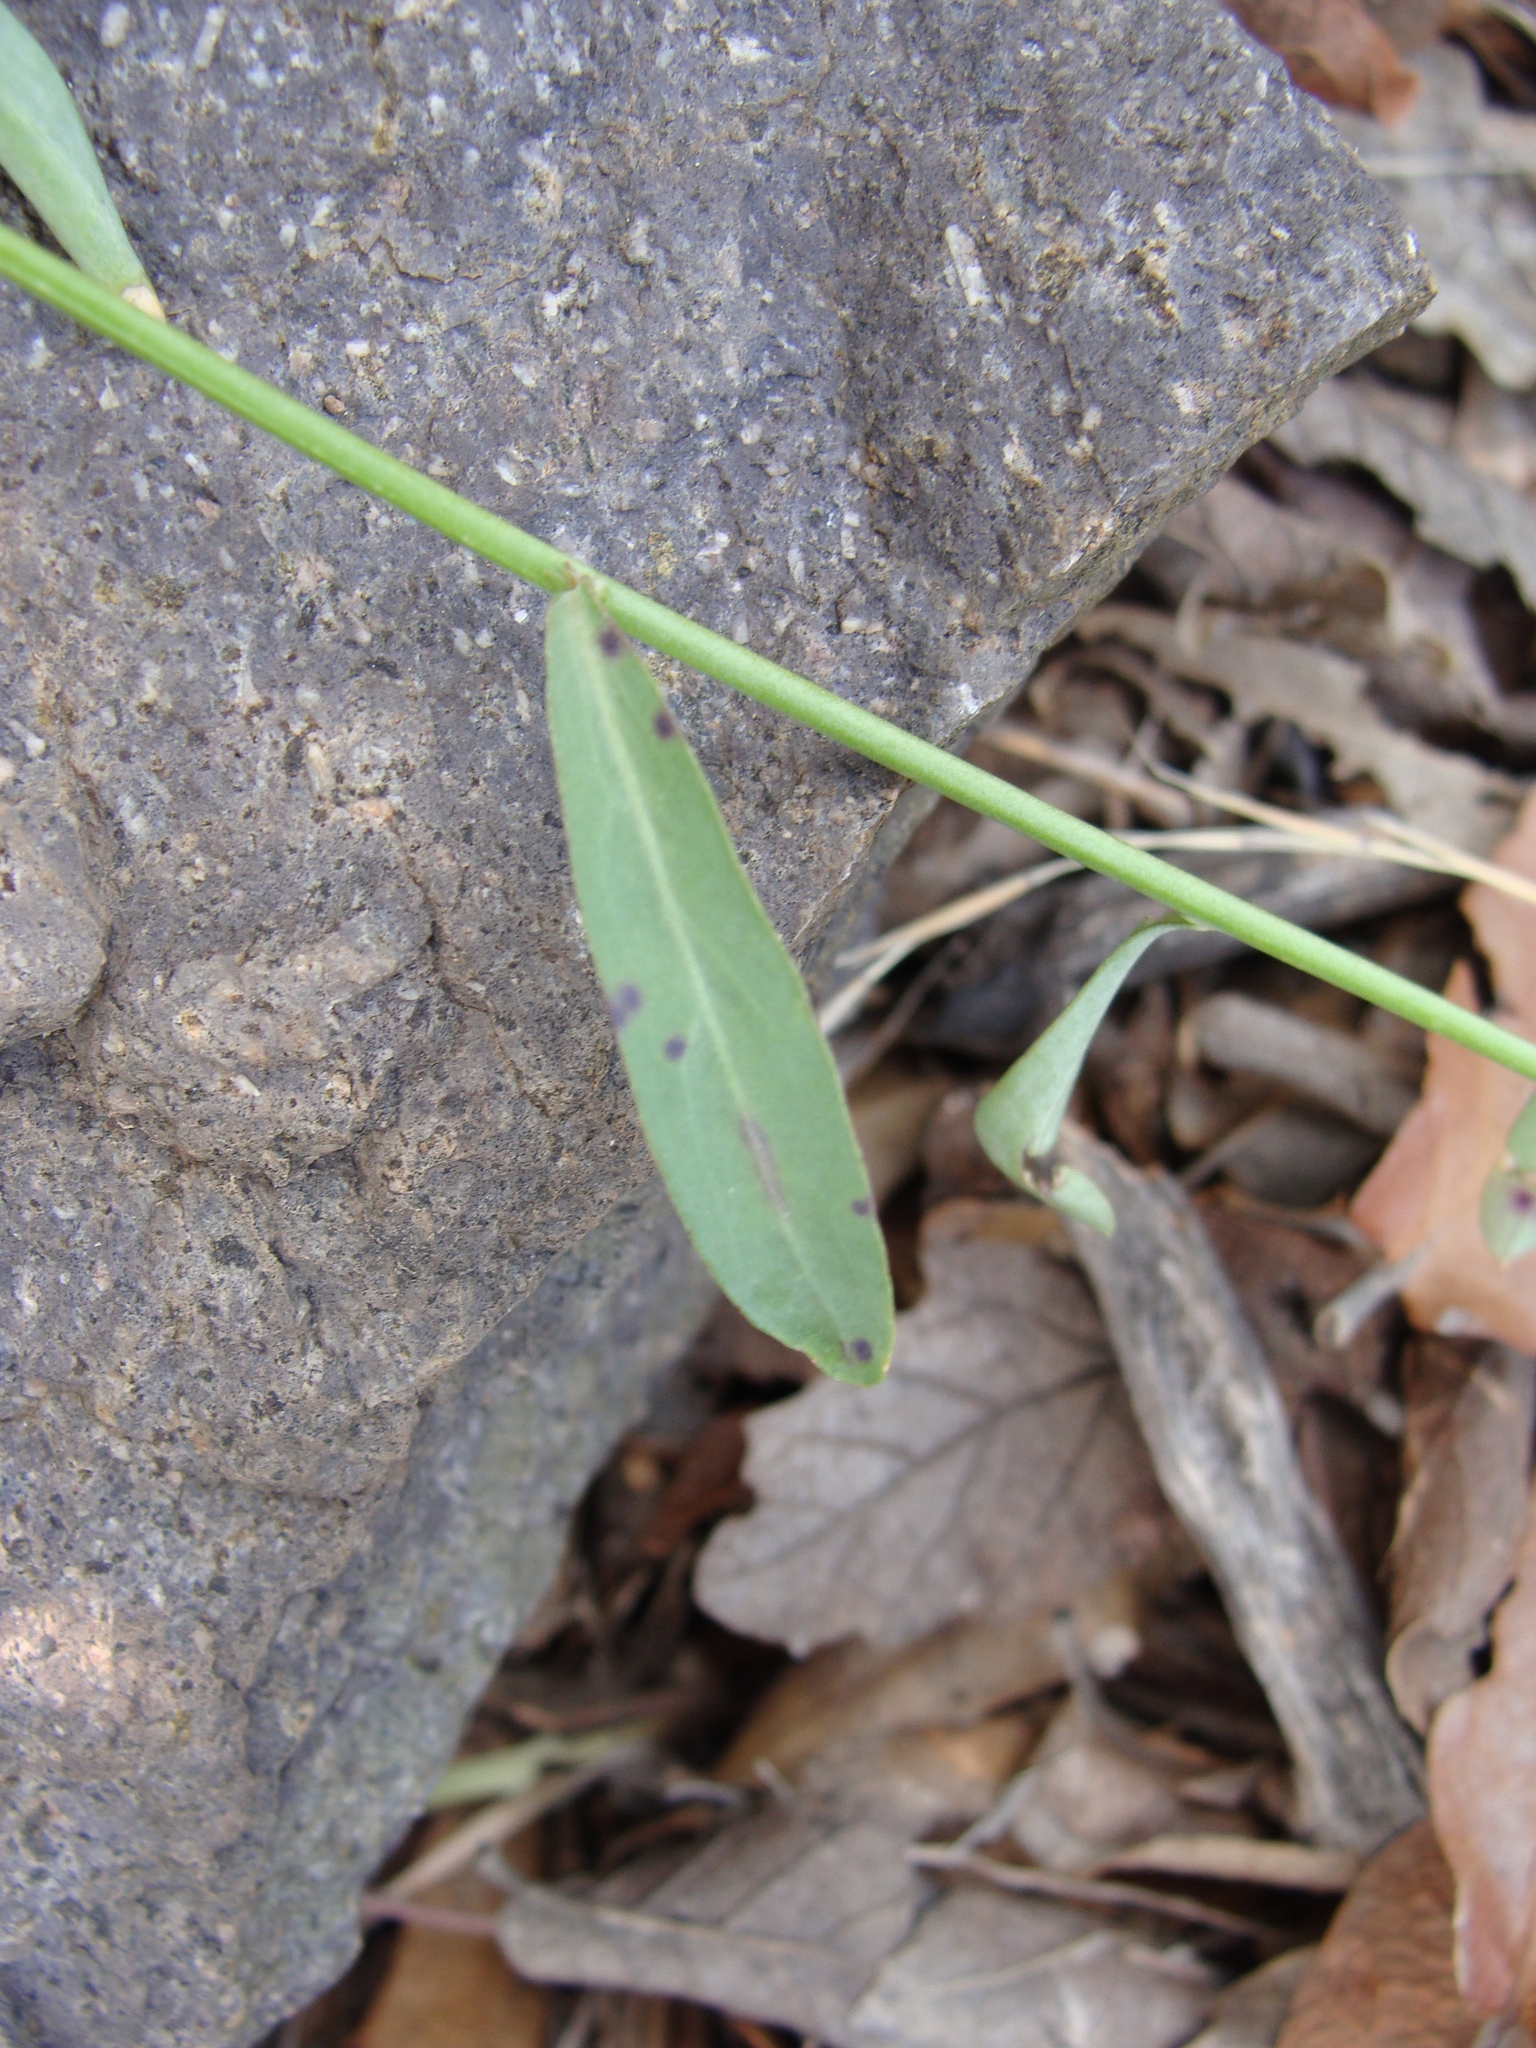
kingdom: Plantae
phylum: Tracheophyta
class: Magnoliopsida
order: Brassicales
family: Brassicaceae
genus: Hesperidanthus
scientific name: Hesperidanthus linearifolius
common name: Slim-leaf plains mustard
